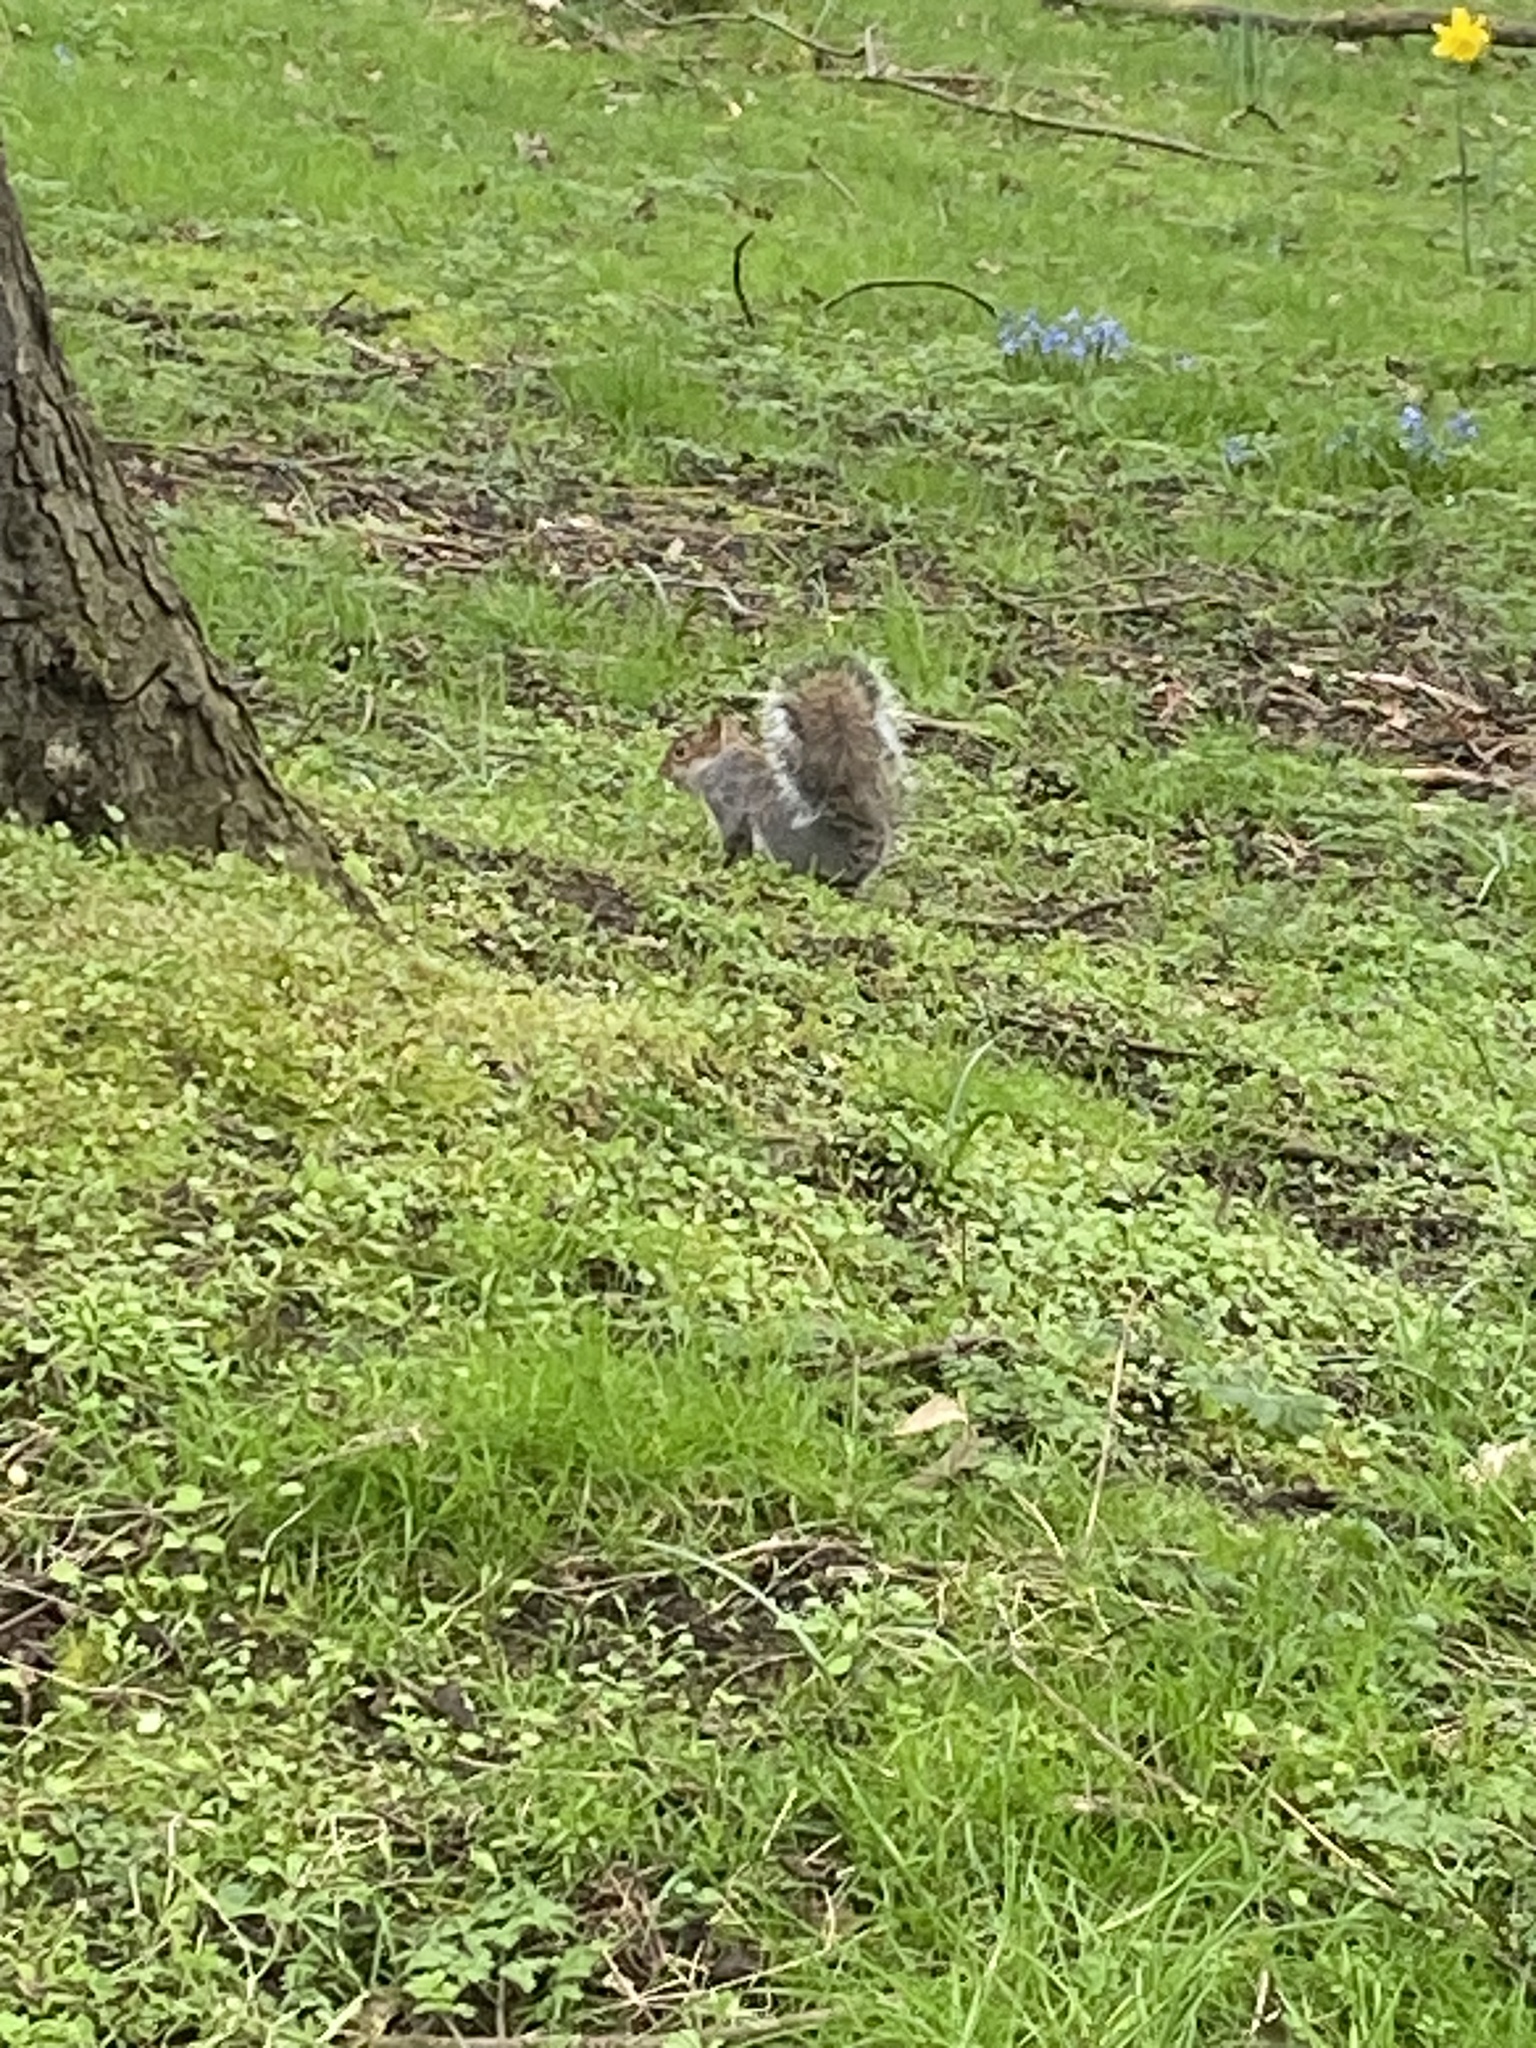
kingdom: Animalia
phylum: Chordata
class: Mammalia
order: Rodentia
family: Sciuridae
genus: Sciurus
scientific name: Sciurus carolinensis
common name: Eastern gray squirrel
